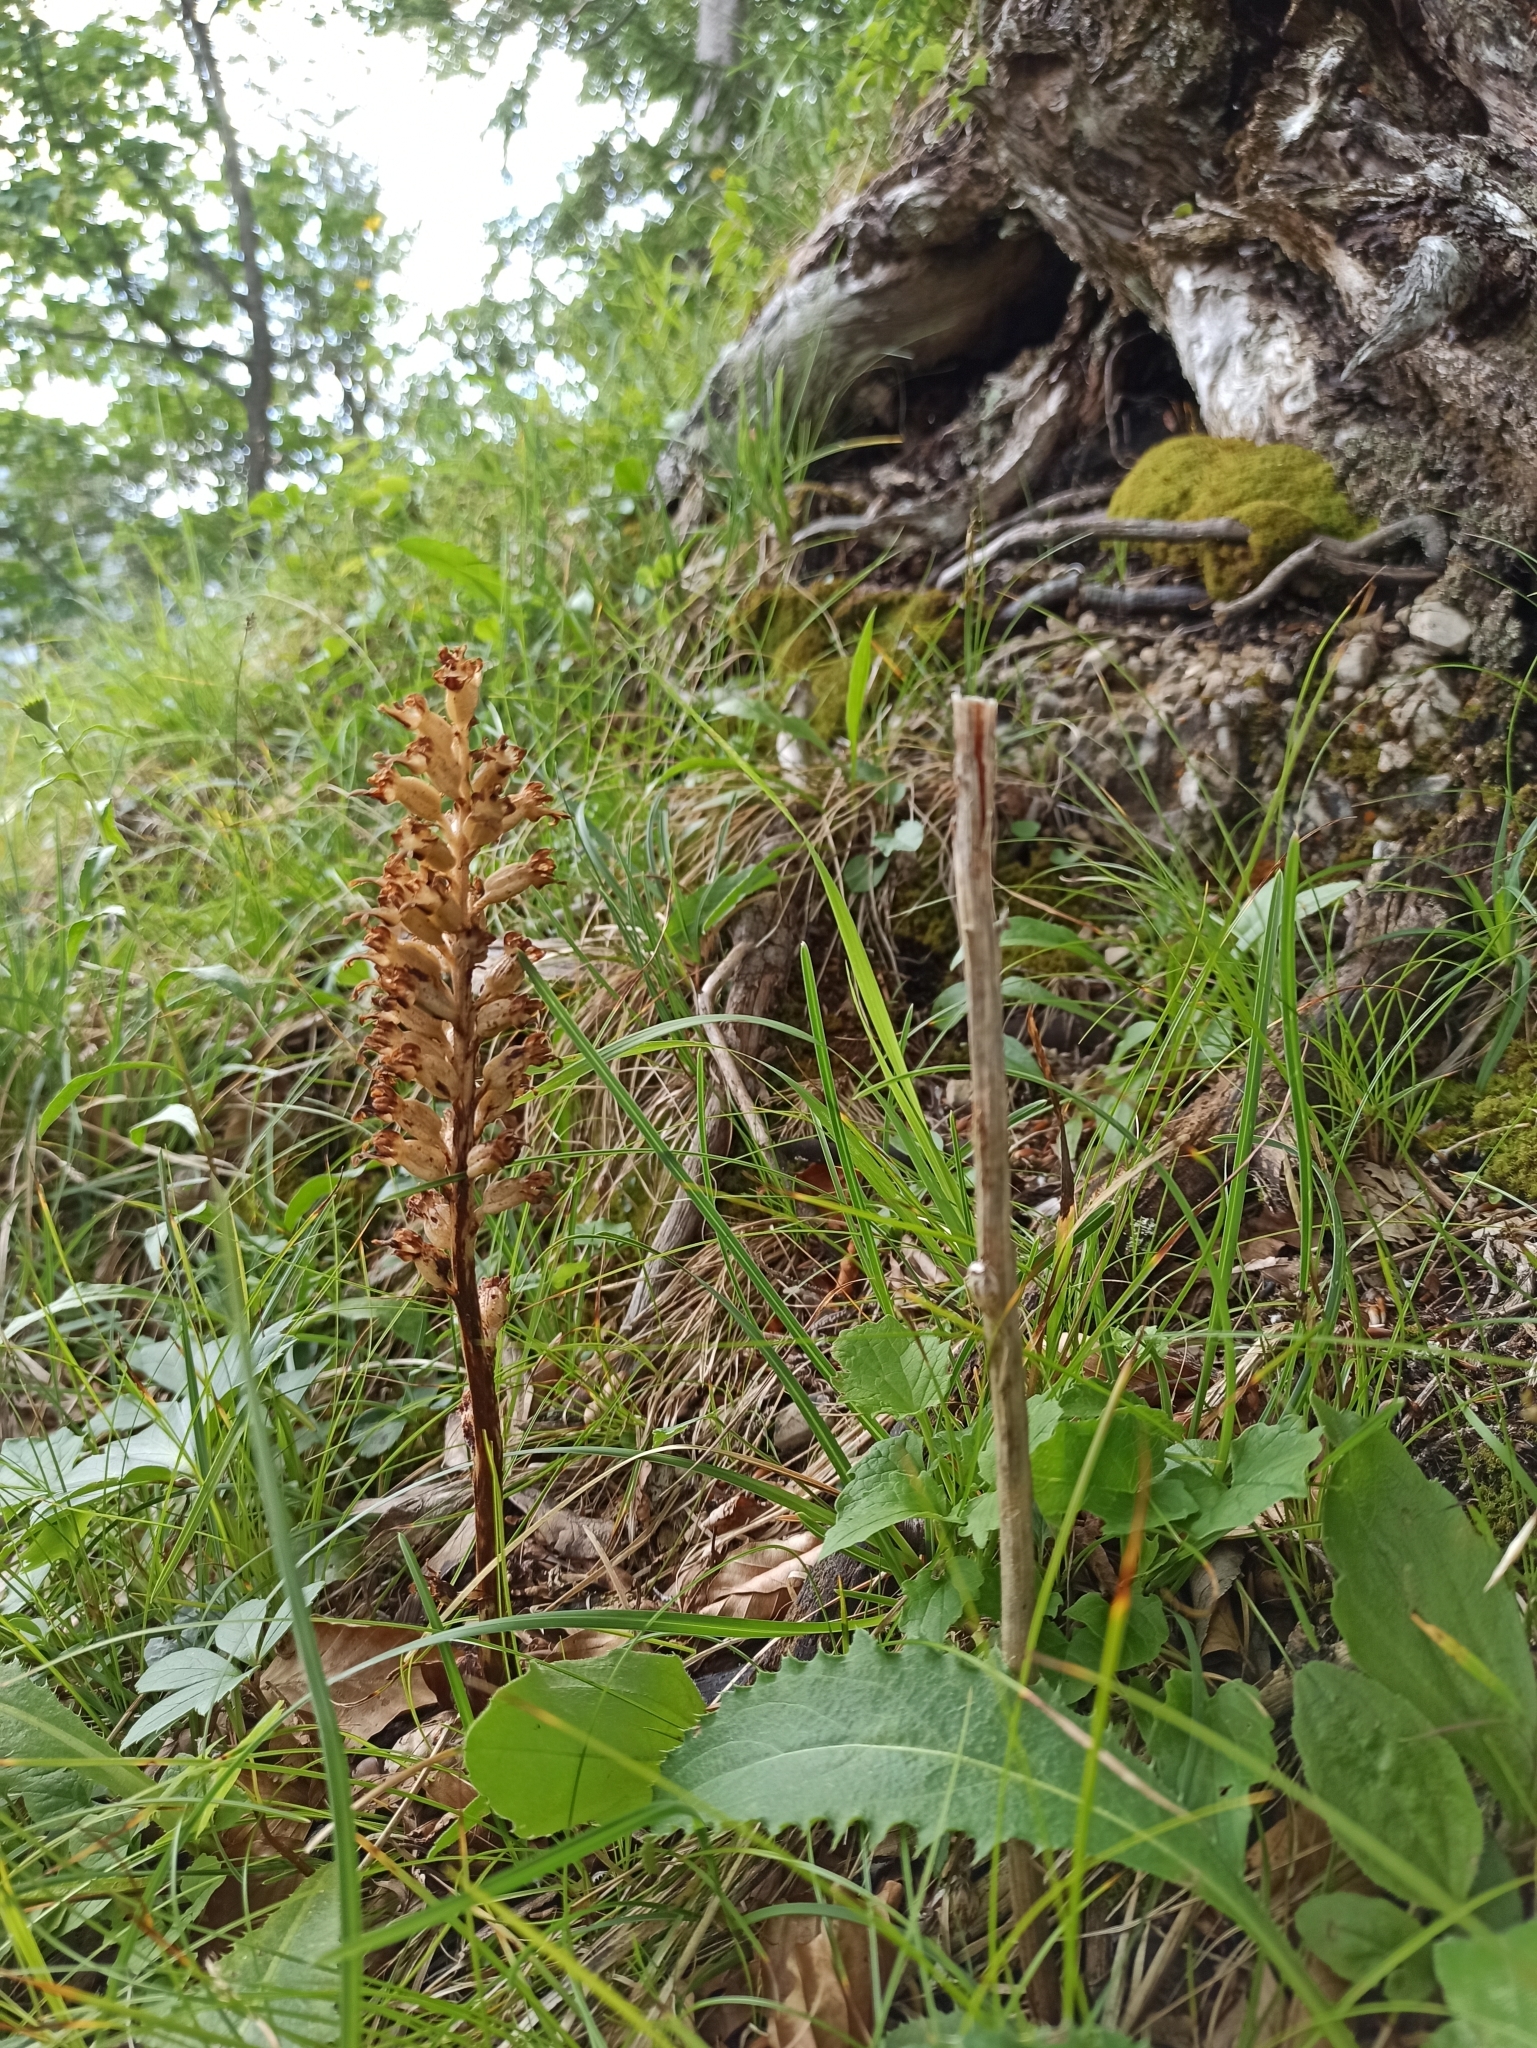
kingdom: Plantae
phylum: Tracheophyta
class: Liliopsida
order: Asparagales
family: Orchidaceae
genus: Neottia
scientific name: Neottia nidus-avis
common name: Bird's-nest orchid
